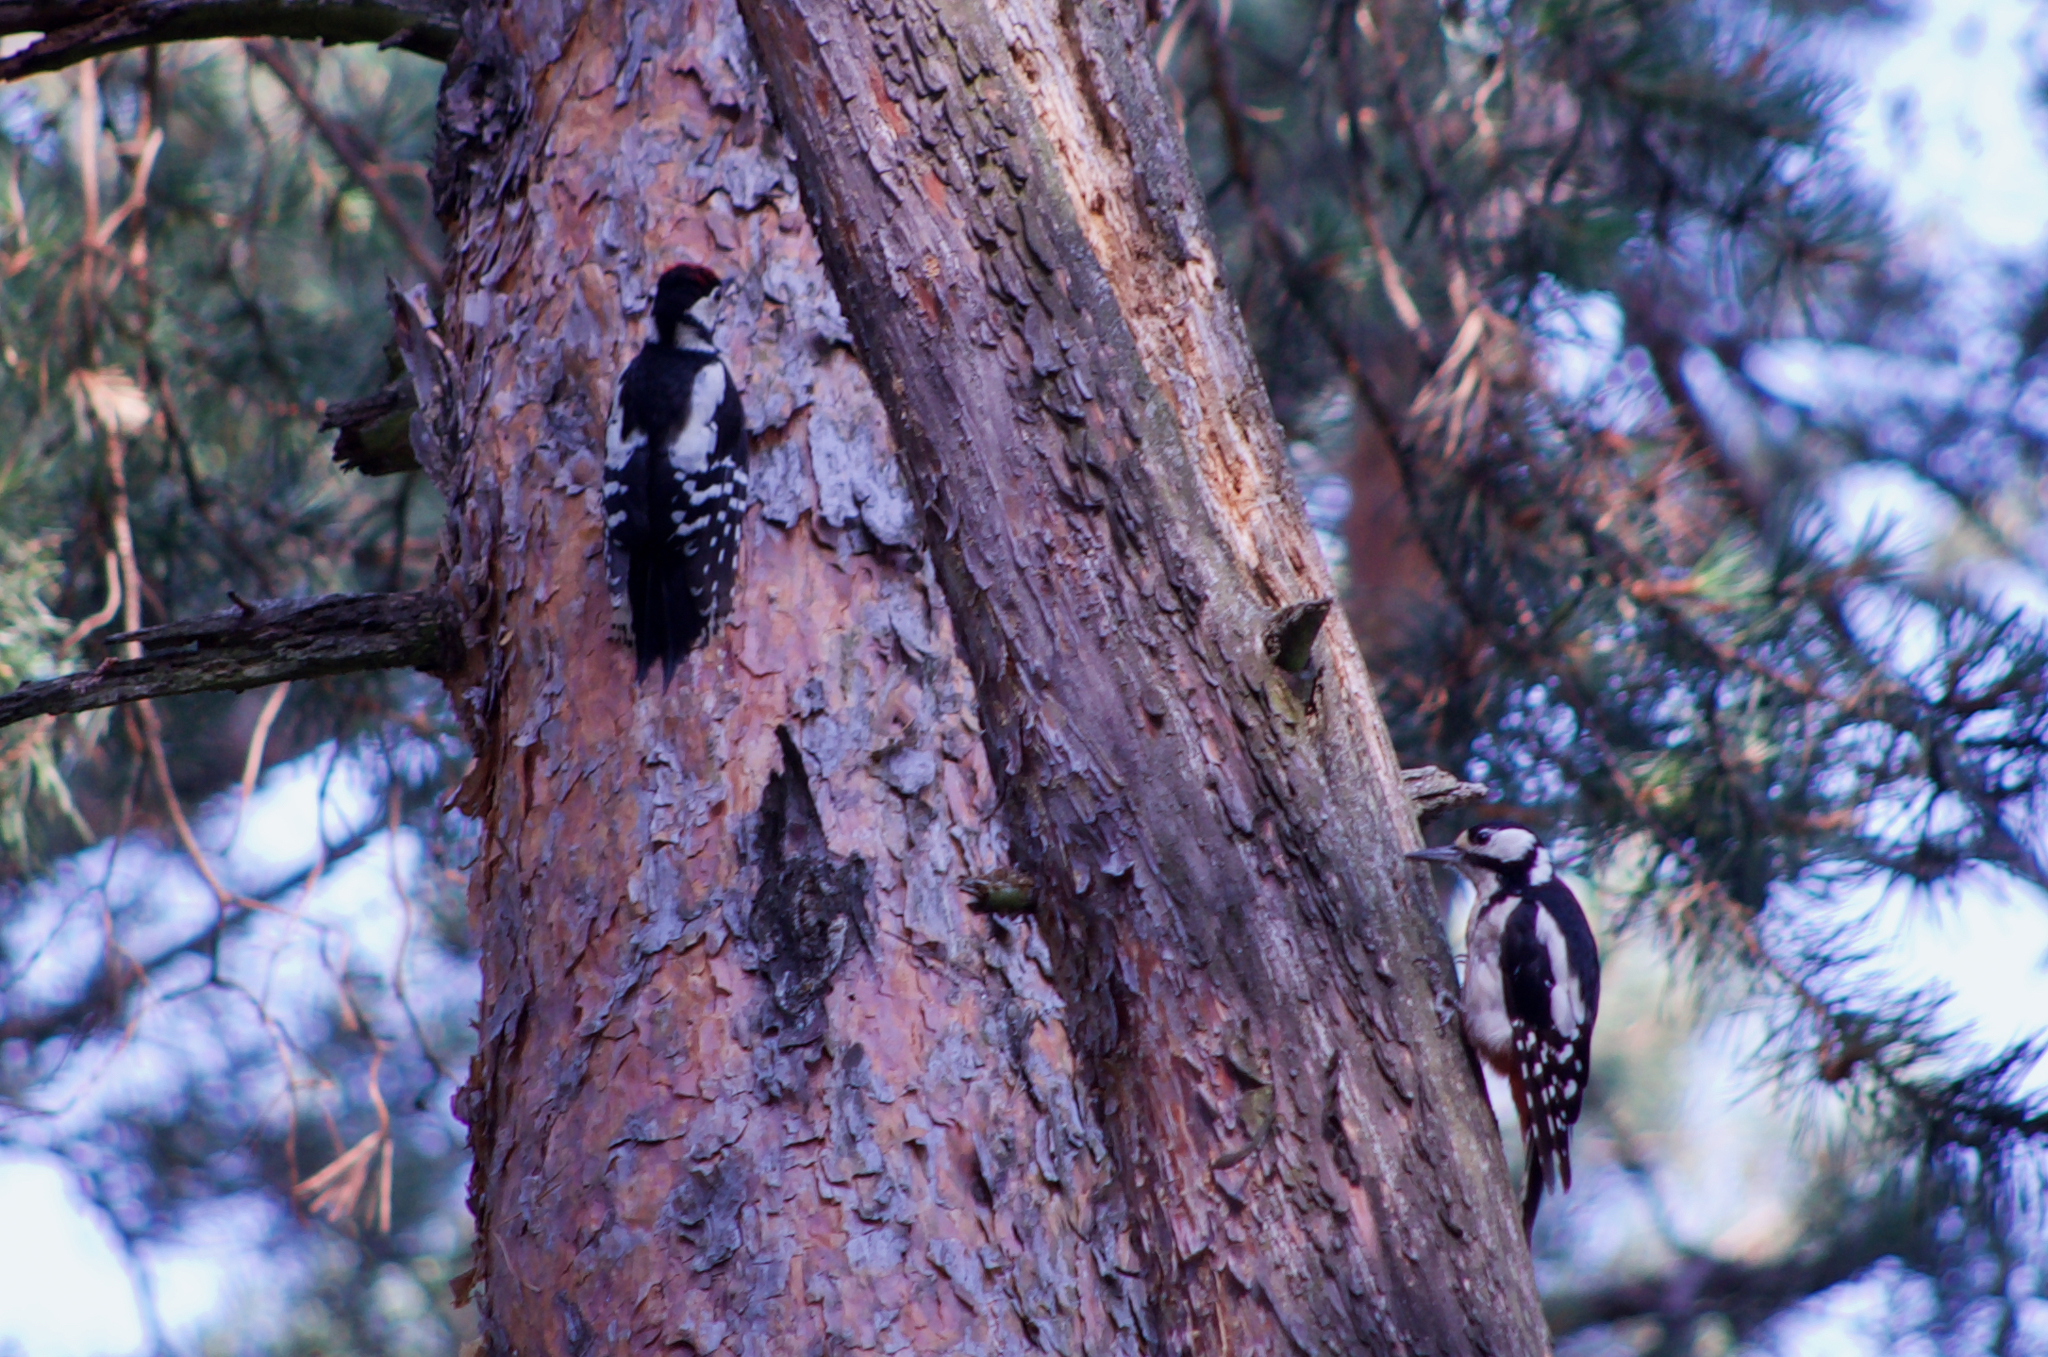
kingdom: Animalia
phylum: Chordata
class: Aves
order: Piciformes
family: Picidae
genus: Dendrocopos
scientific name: Dendrocopos major
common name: Great spotted woodpecker
